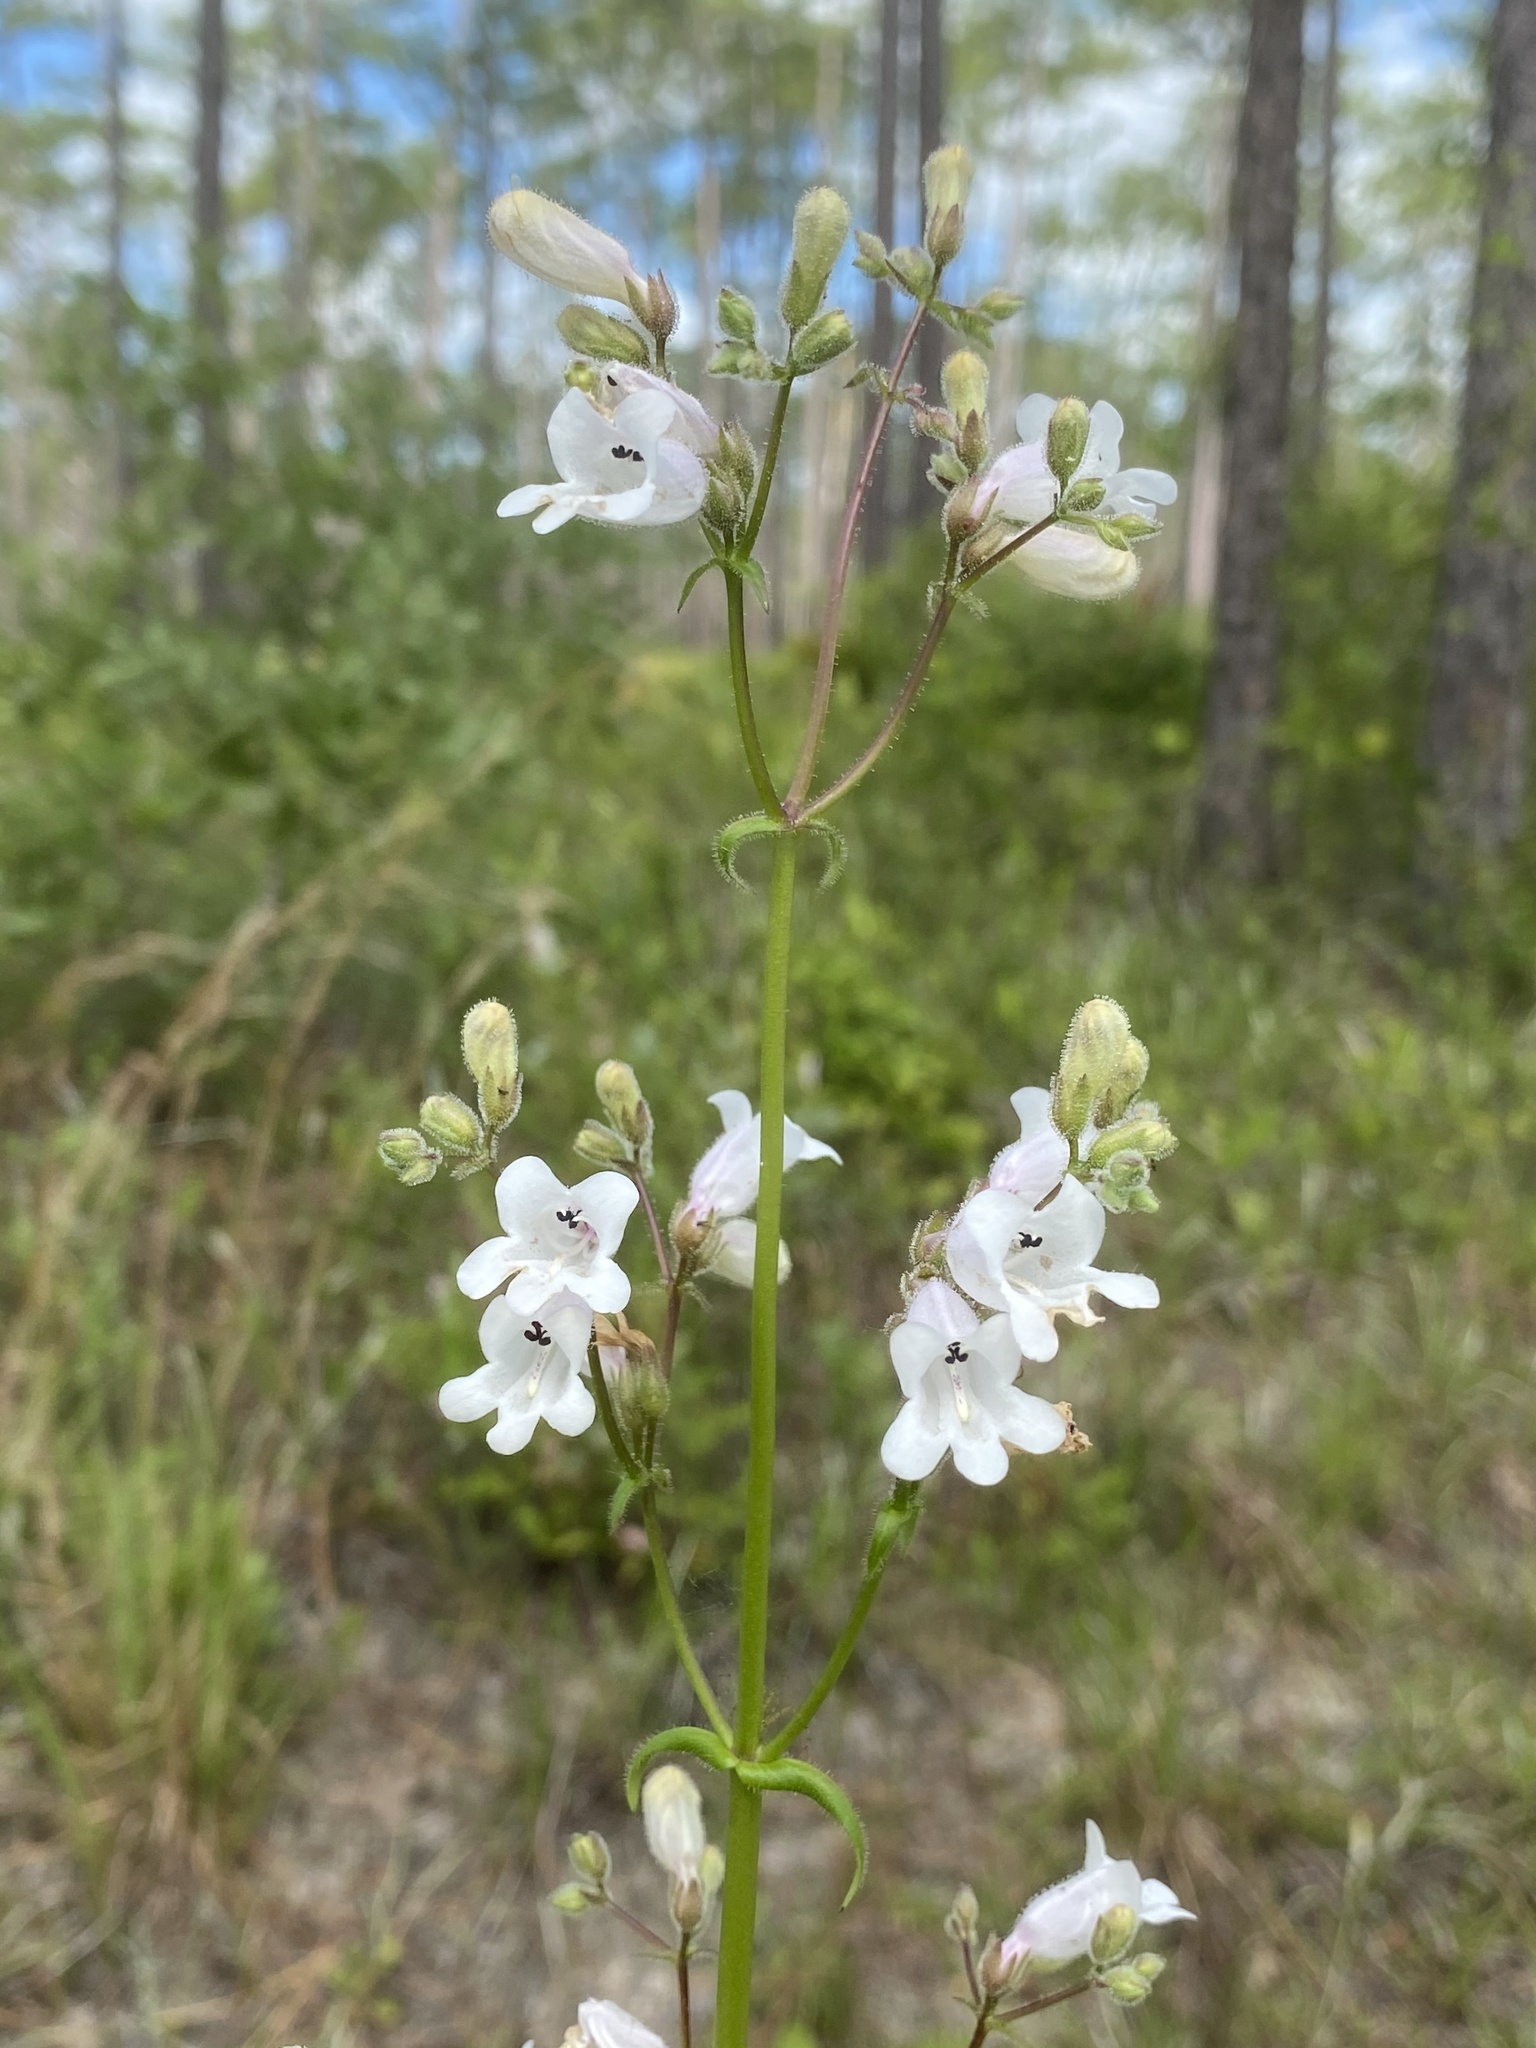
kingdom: Plantae
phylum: Tracheophyta
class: Magnoliopsida
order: Lamiales
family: Plantaginaceae
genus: Penstemon
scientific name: Penstemon multiflorus
